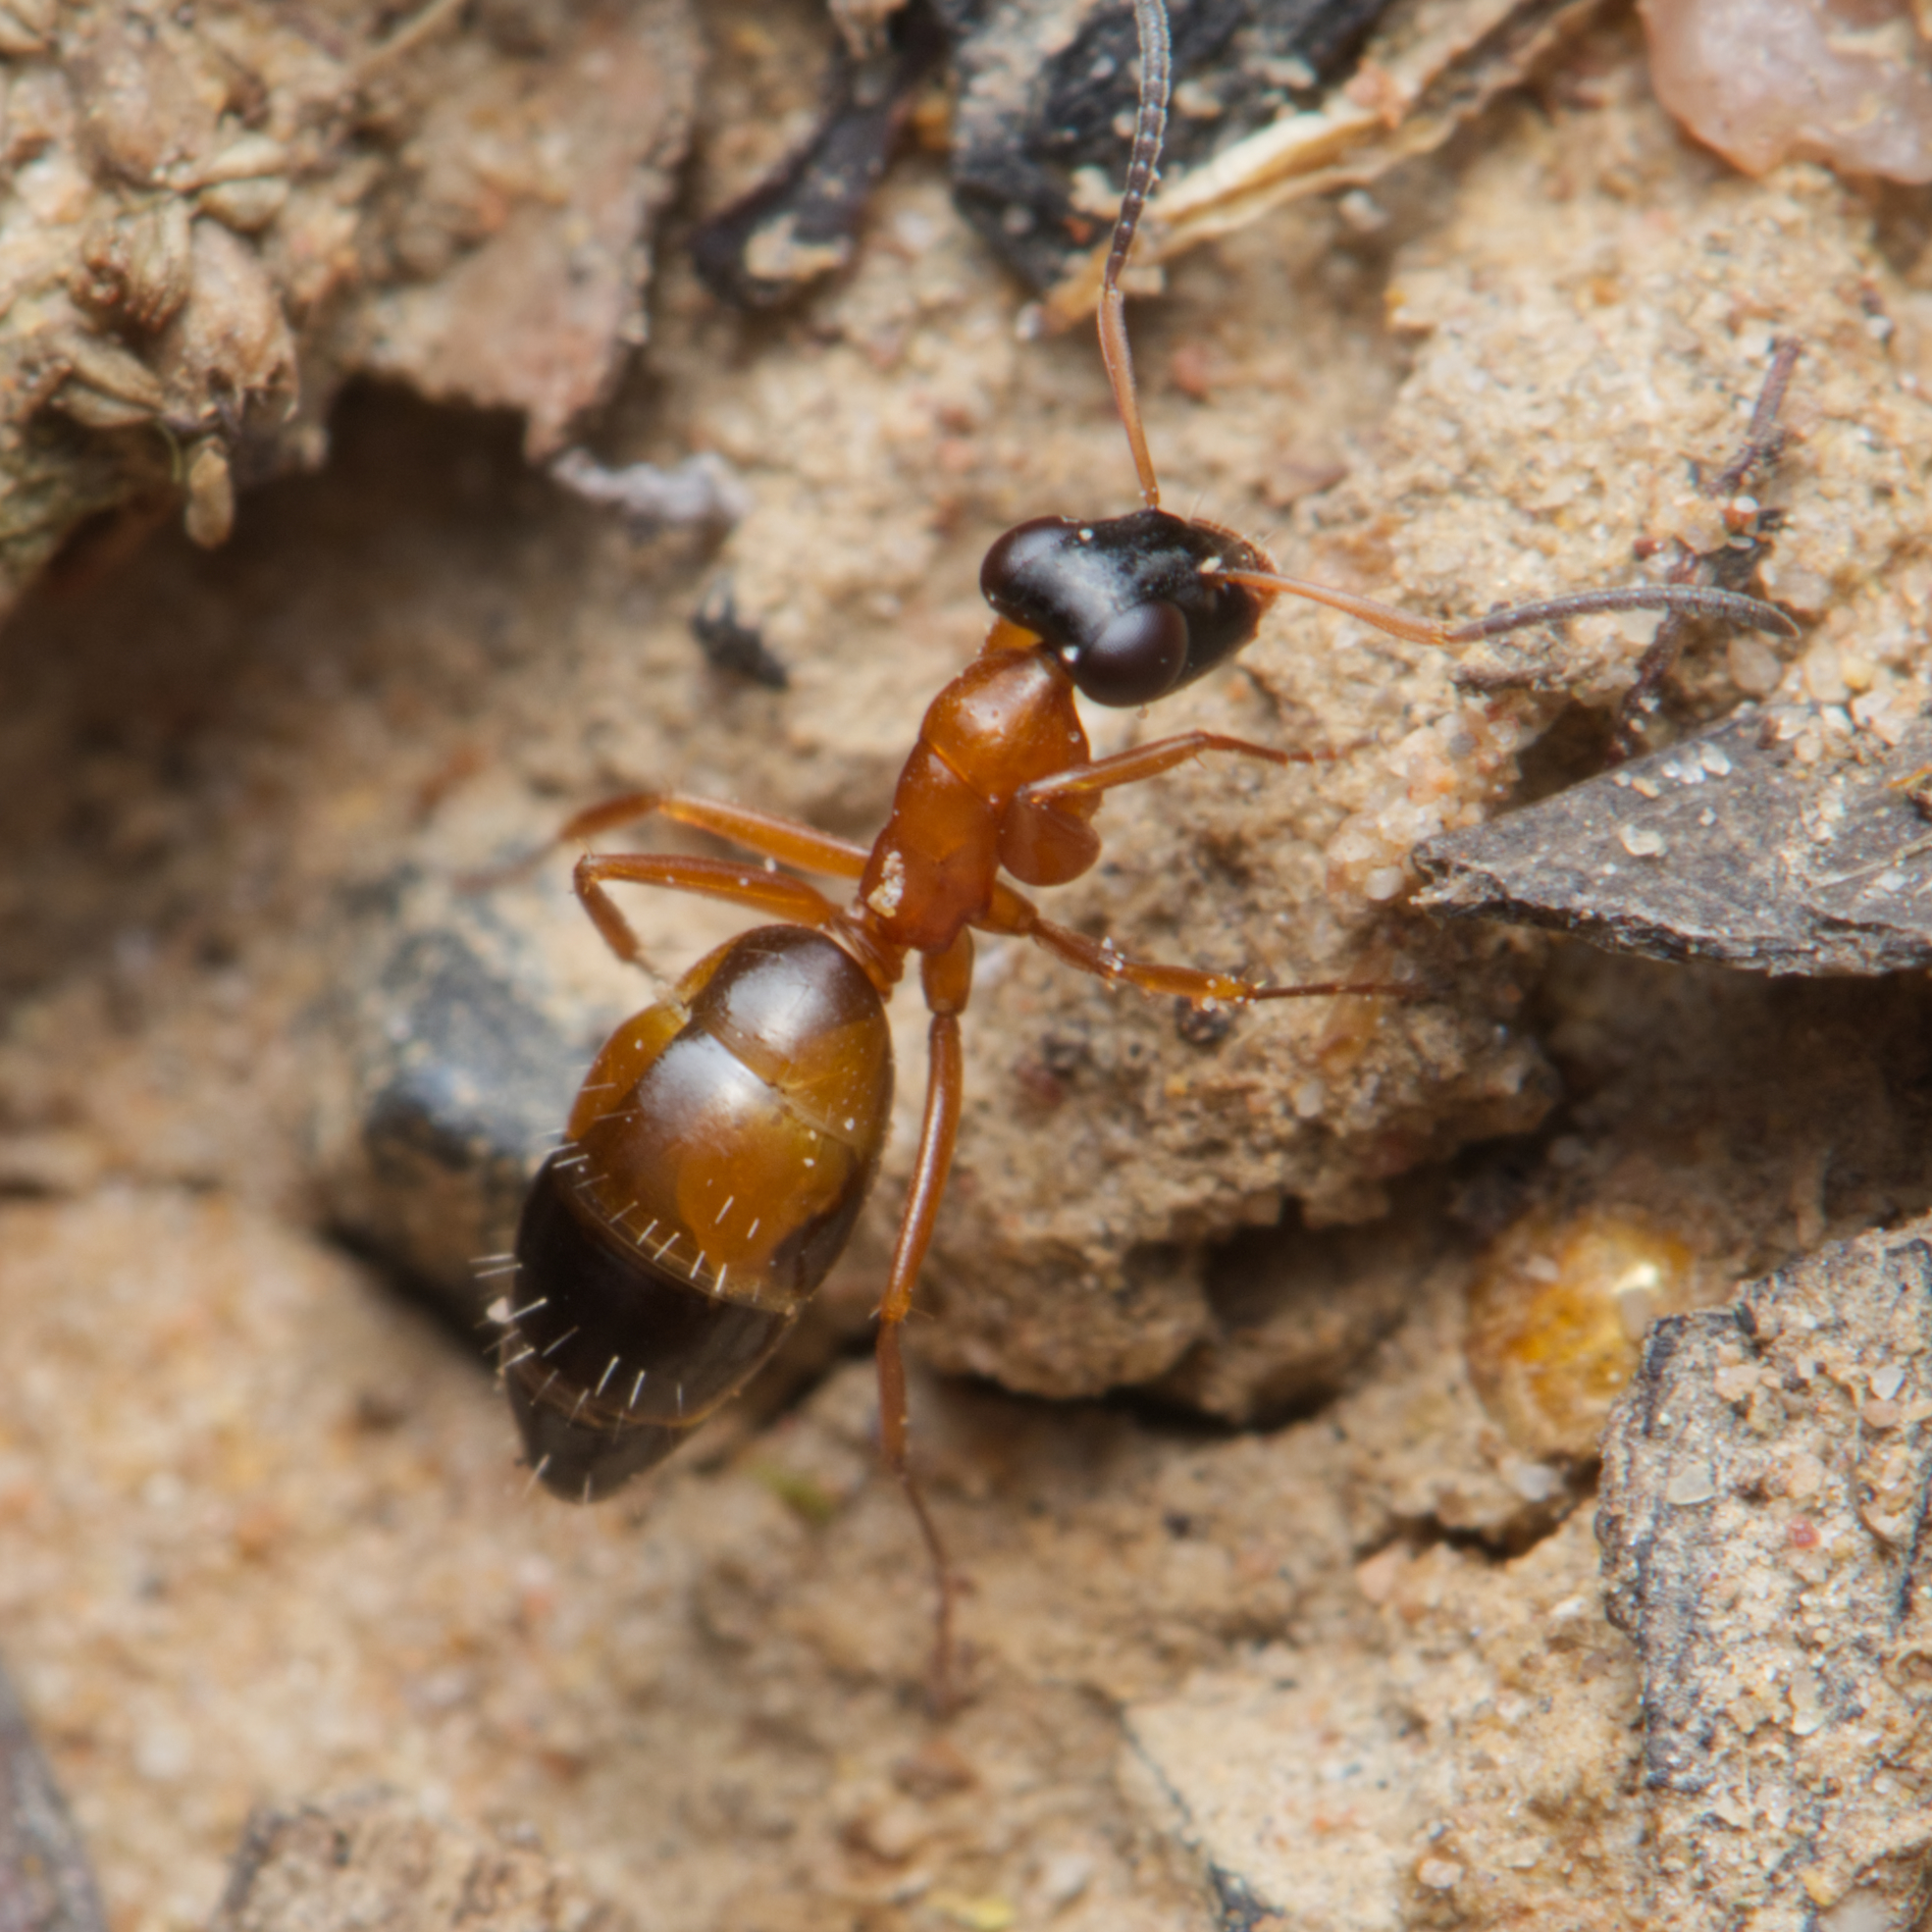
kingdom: Animalia
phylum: Arthropoda
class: Insecta
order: Hymenoptera
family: Formicidae
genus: Opisthopsis
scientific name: Opisthopsis rufithorax
